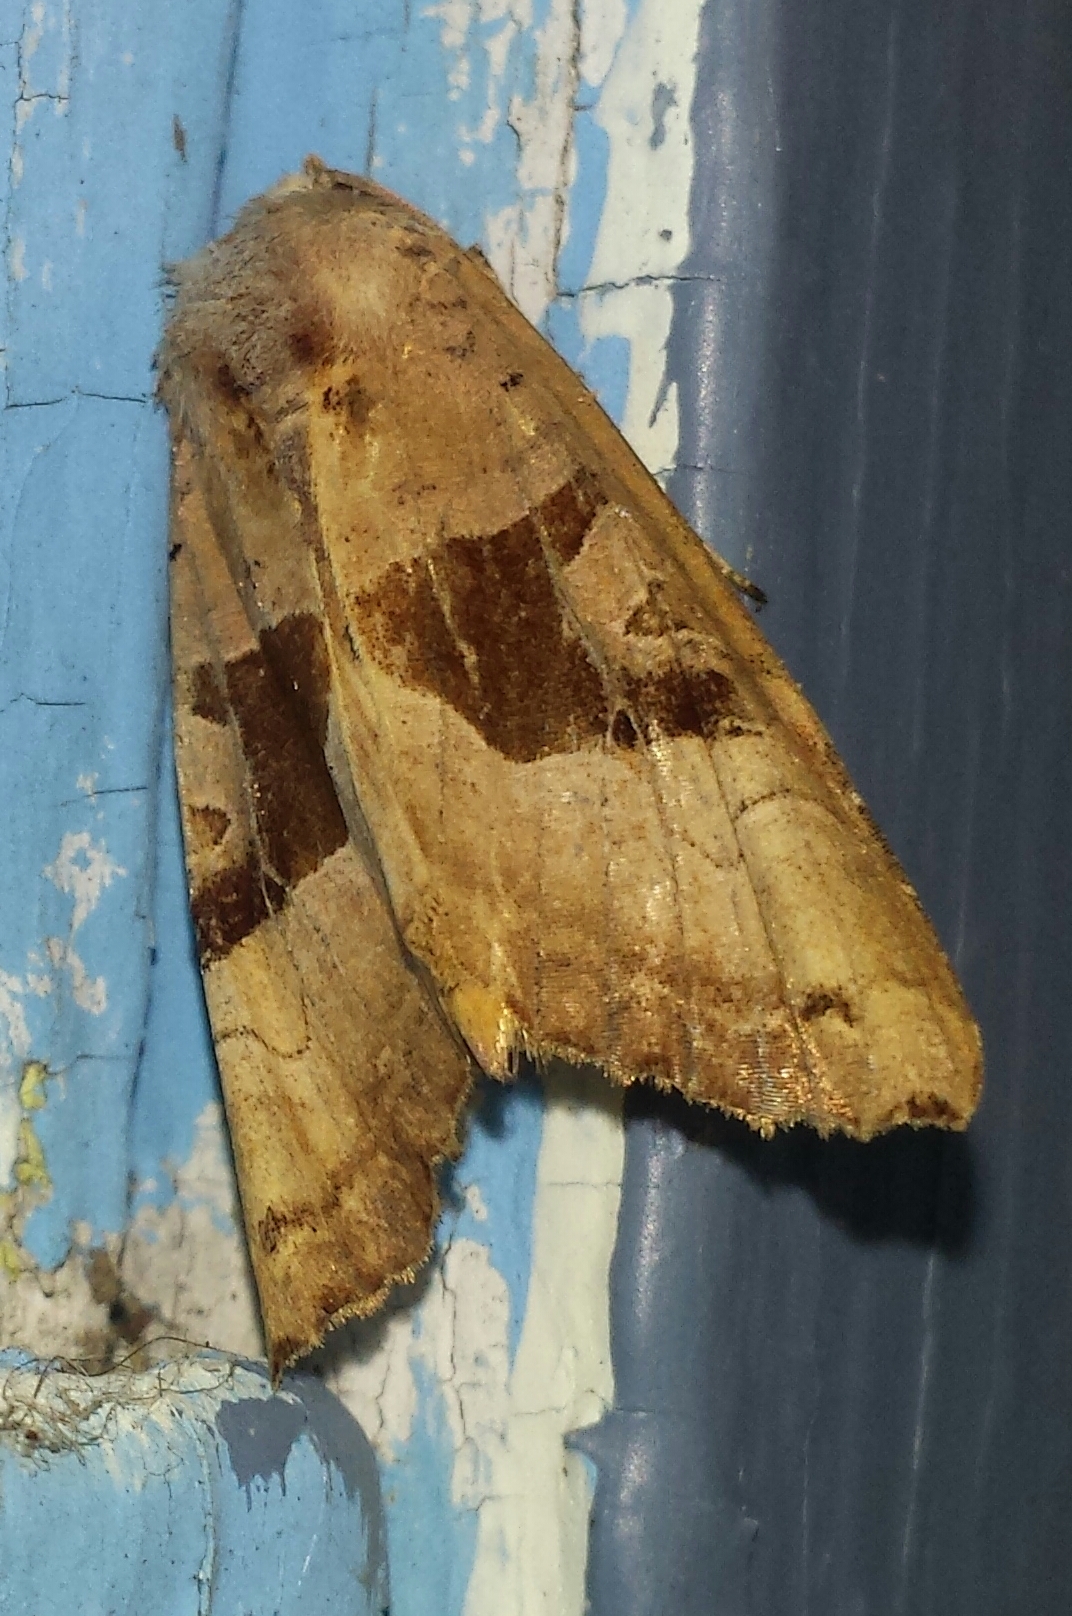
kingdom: Animalia
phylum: Arthropoda
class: Insecta
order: Lepidoptera
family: Noctuidae
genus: Phlogophora
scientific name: Phlogophora periculosa
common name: Brown angle shades
